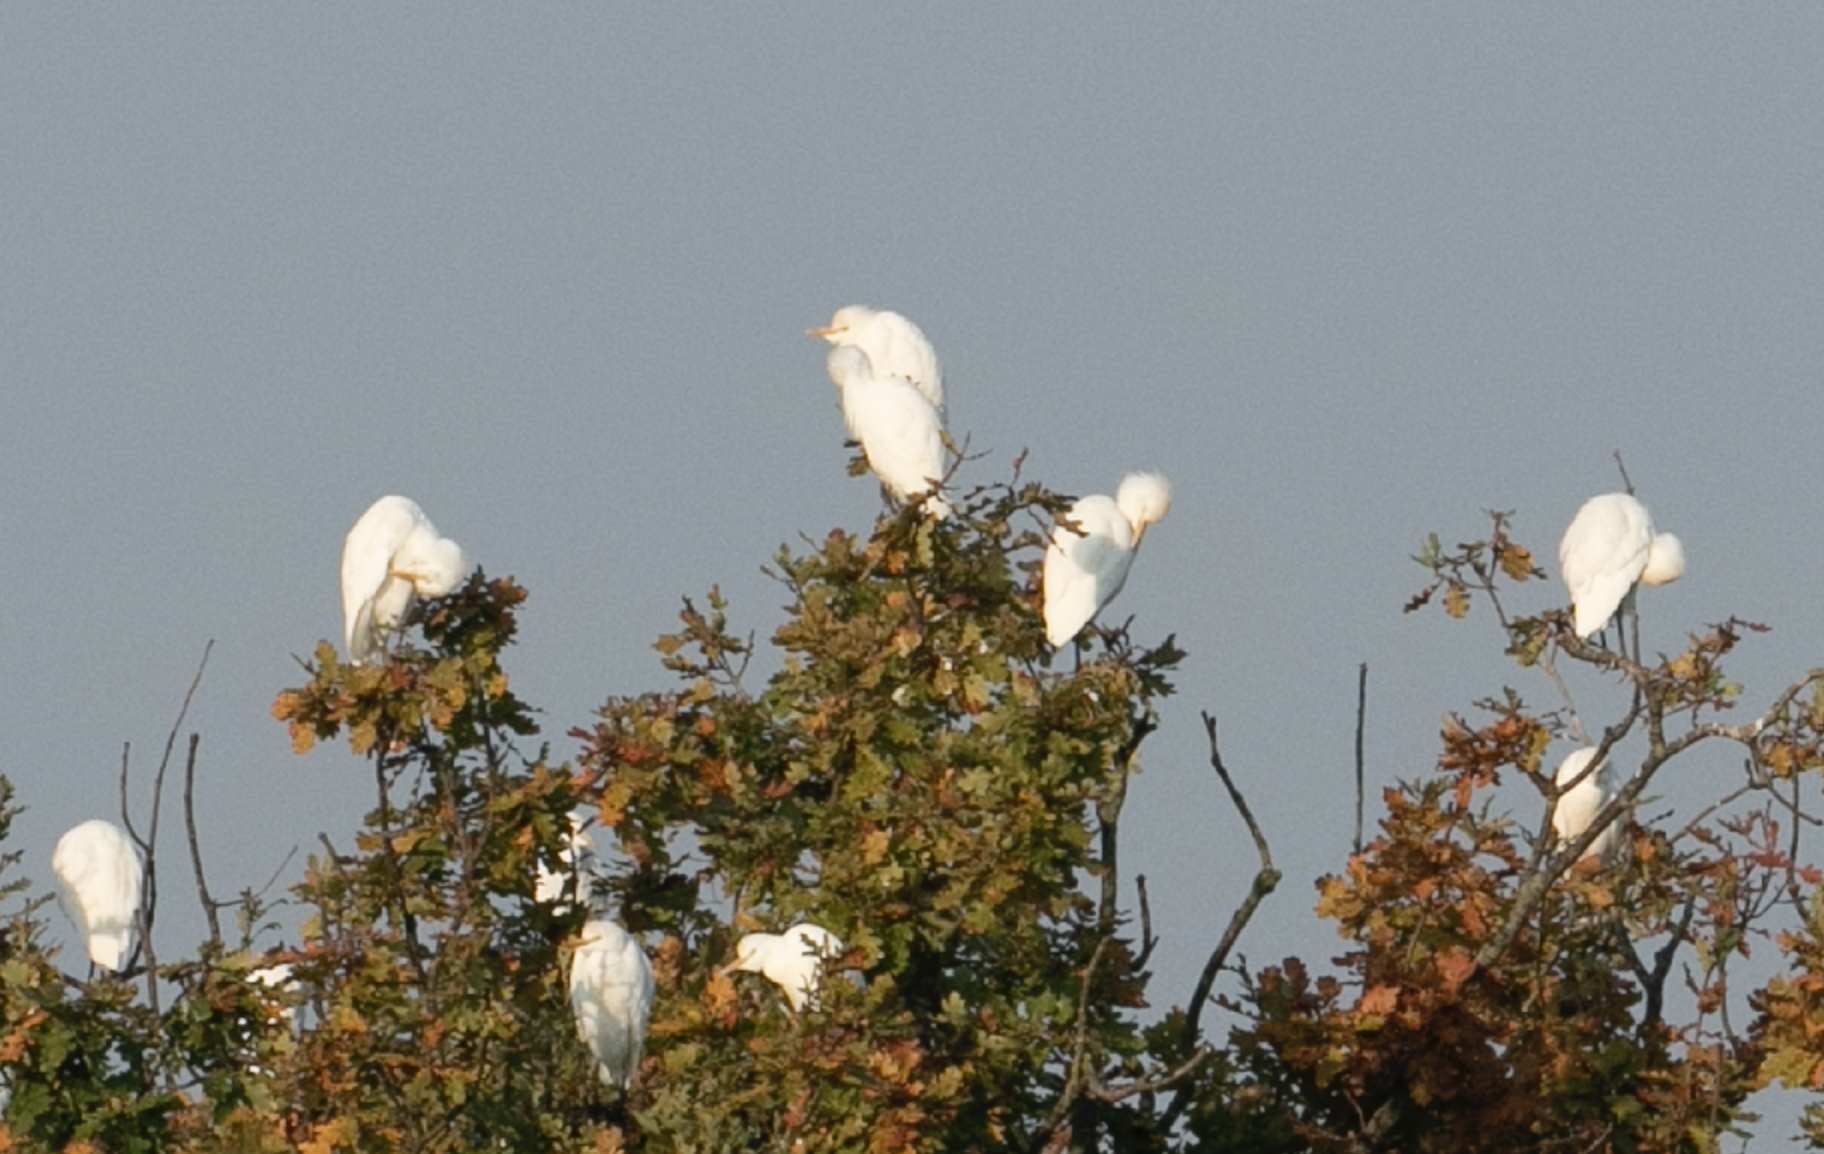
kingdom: Animalia
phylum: Chordata
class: Aves
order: Pelecaniformes
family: Ardeidae
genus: Bubulcus
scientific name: Bubulcus ibis
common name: Cattle egret
